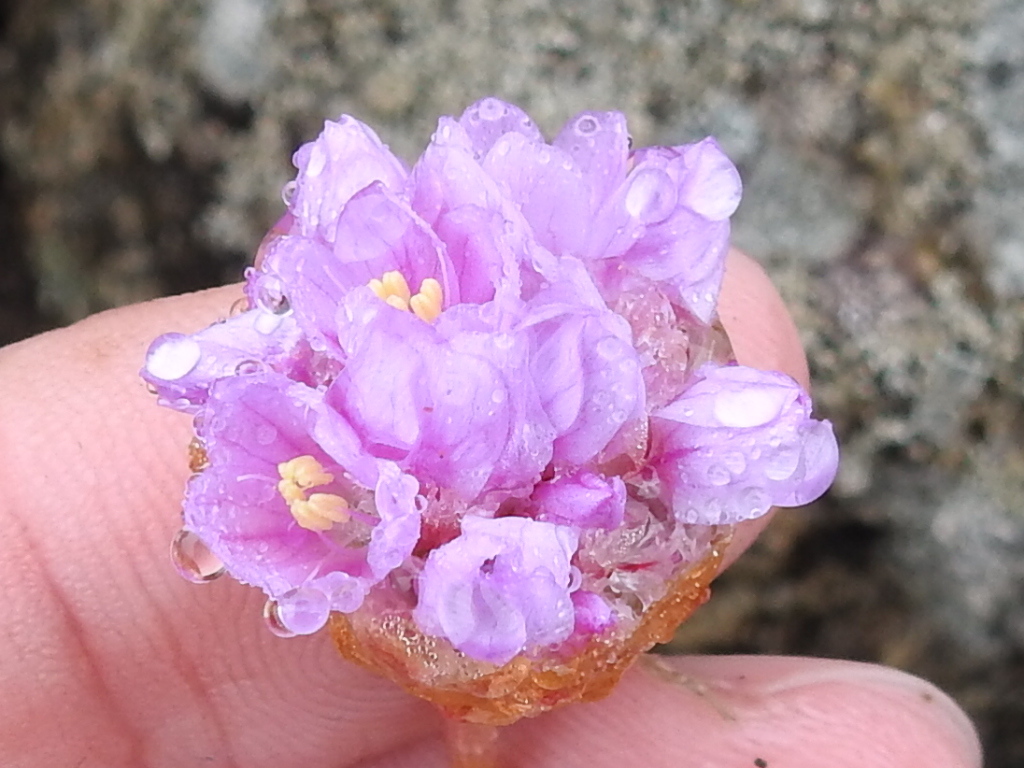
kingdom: Plantae
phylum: Tracheophyta
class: Magnoliopsida
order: Caryophyllales
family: Plumbaginaceae
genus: Armeria
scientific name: Armeria maritima
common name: Thrift
